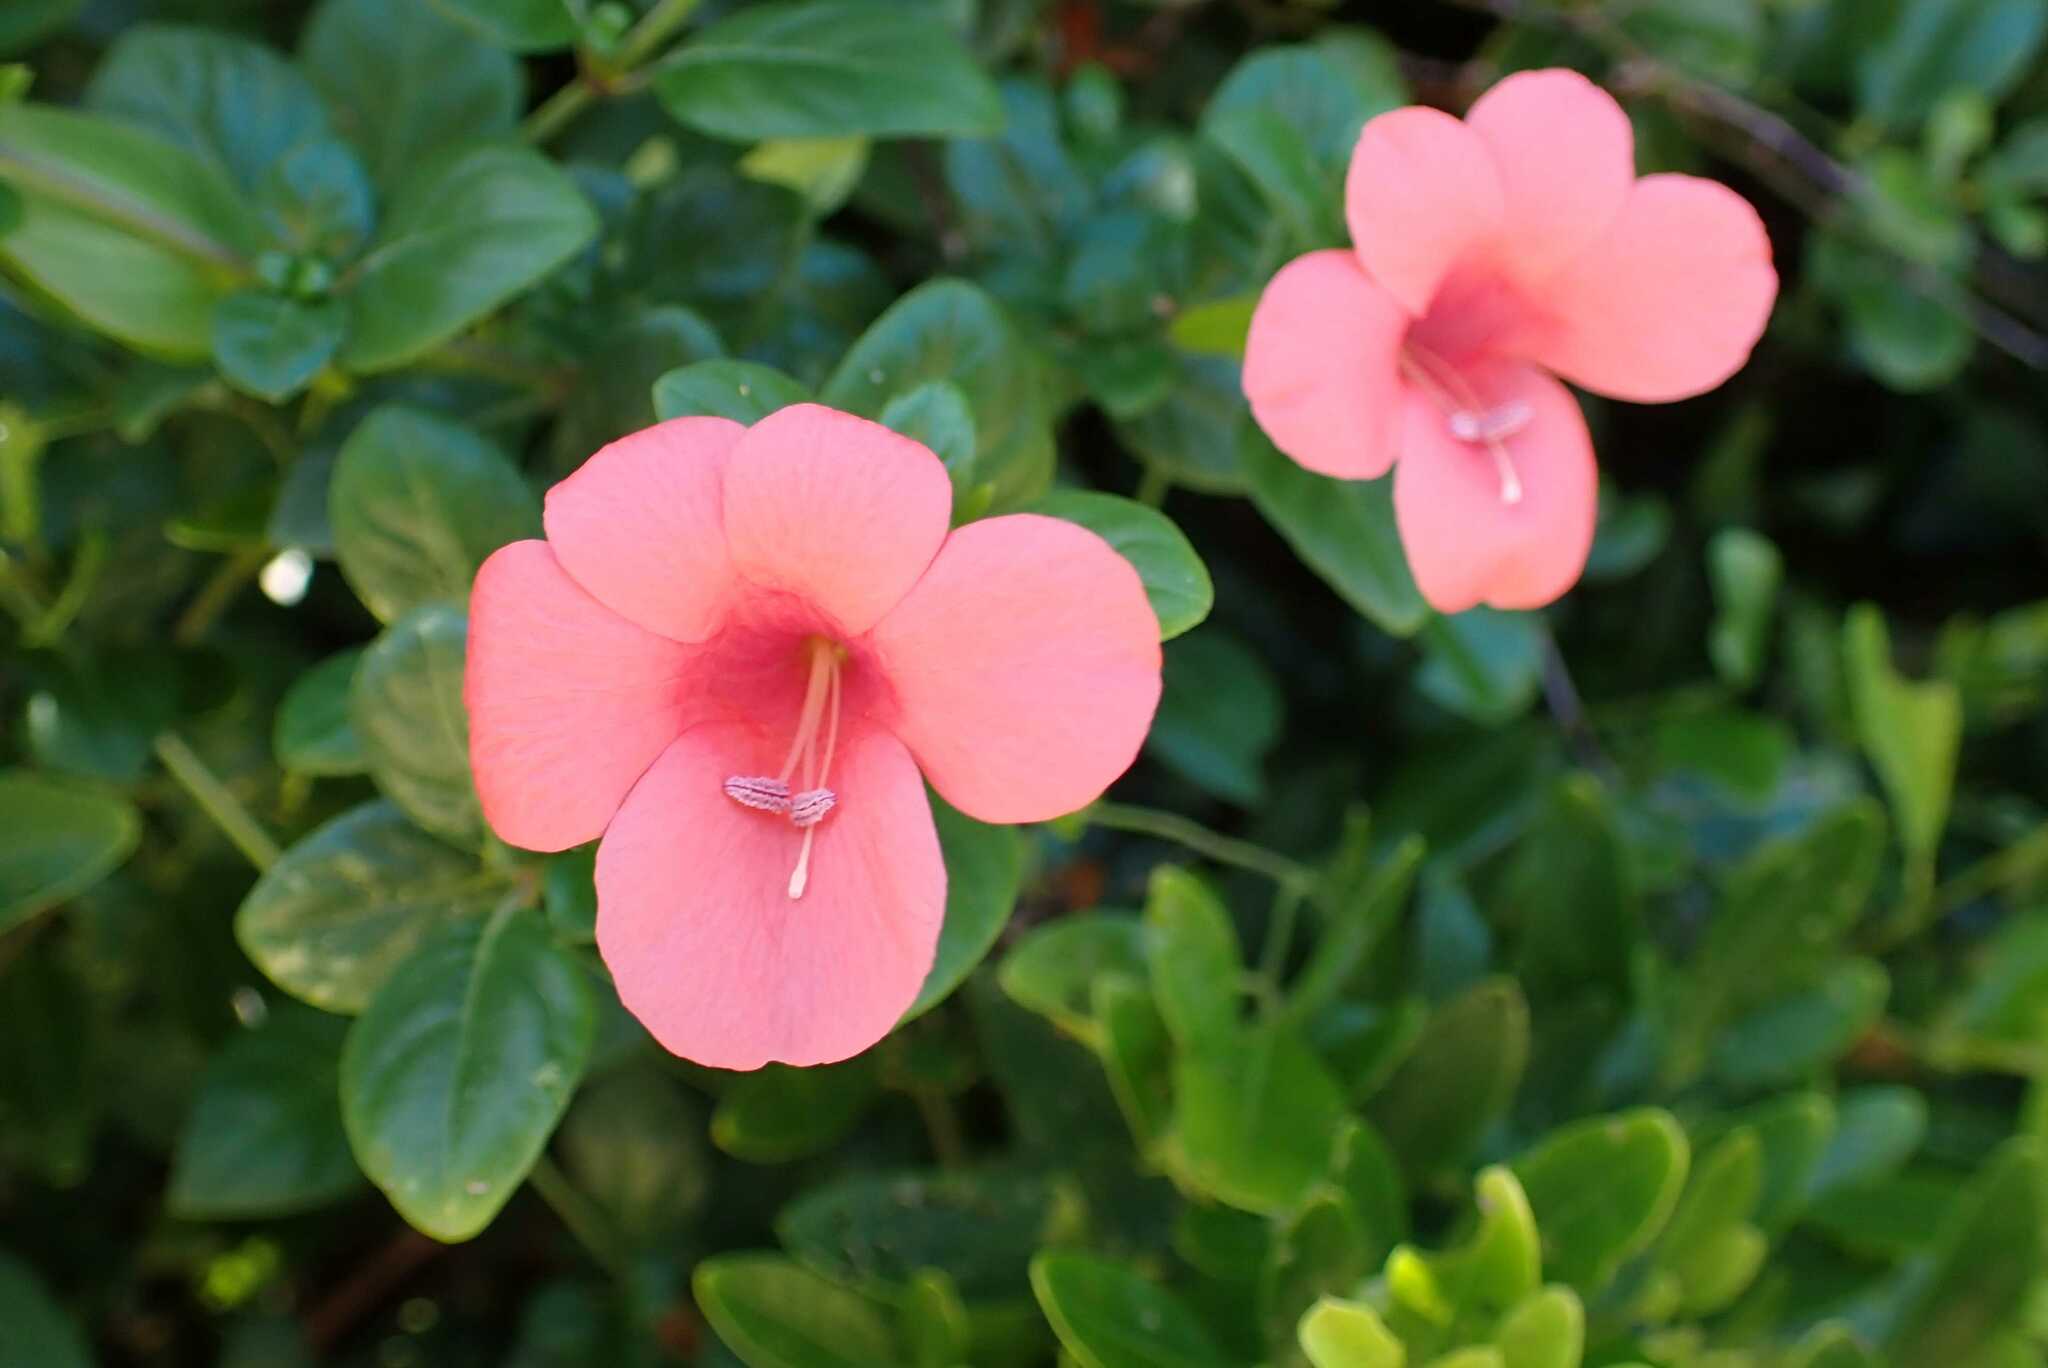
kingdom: Plantae
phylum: Tracheophyta
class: Magnoliopsida
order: Lamiales
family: Acanthaceae
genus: Barleria
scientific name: Barleria repens
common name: Pink-ruellia
